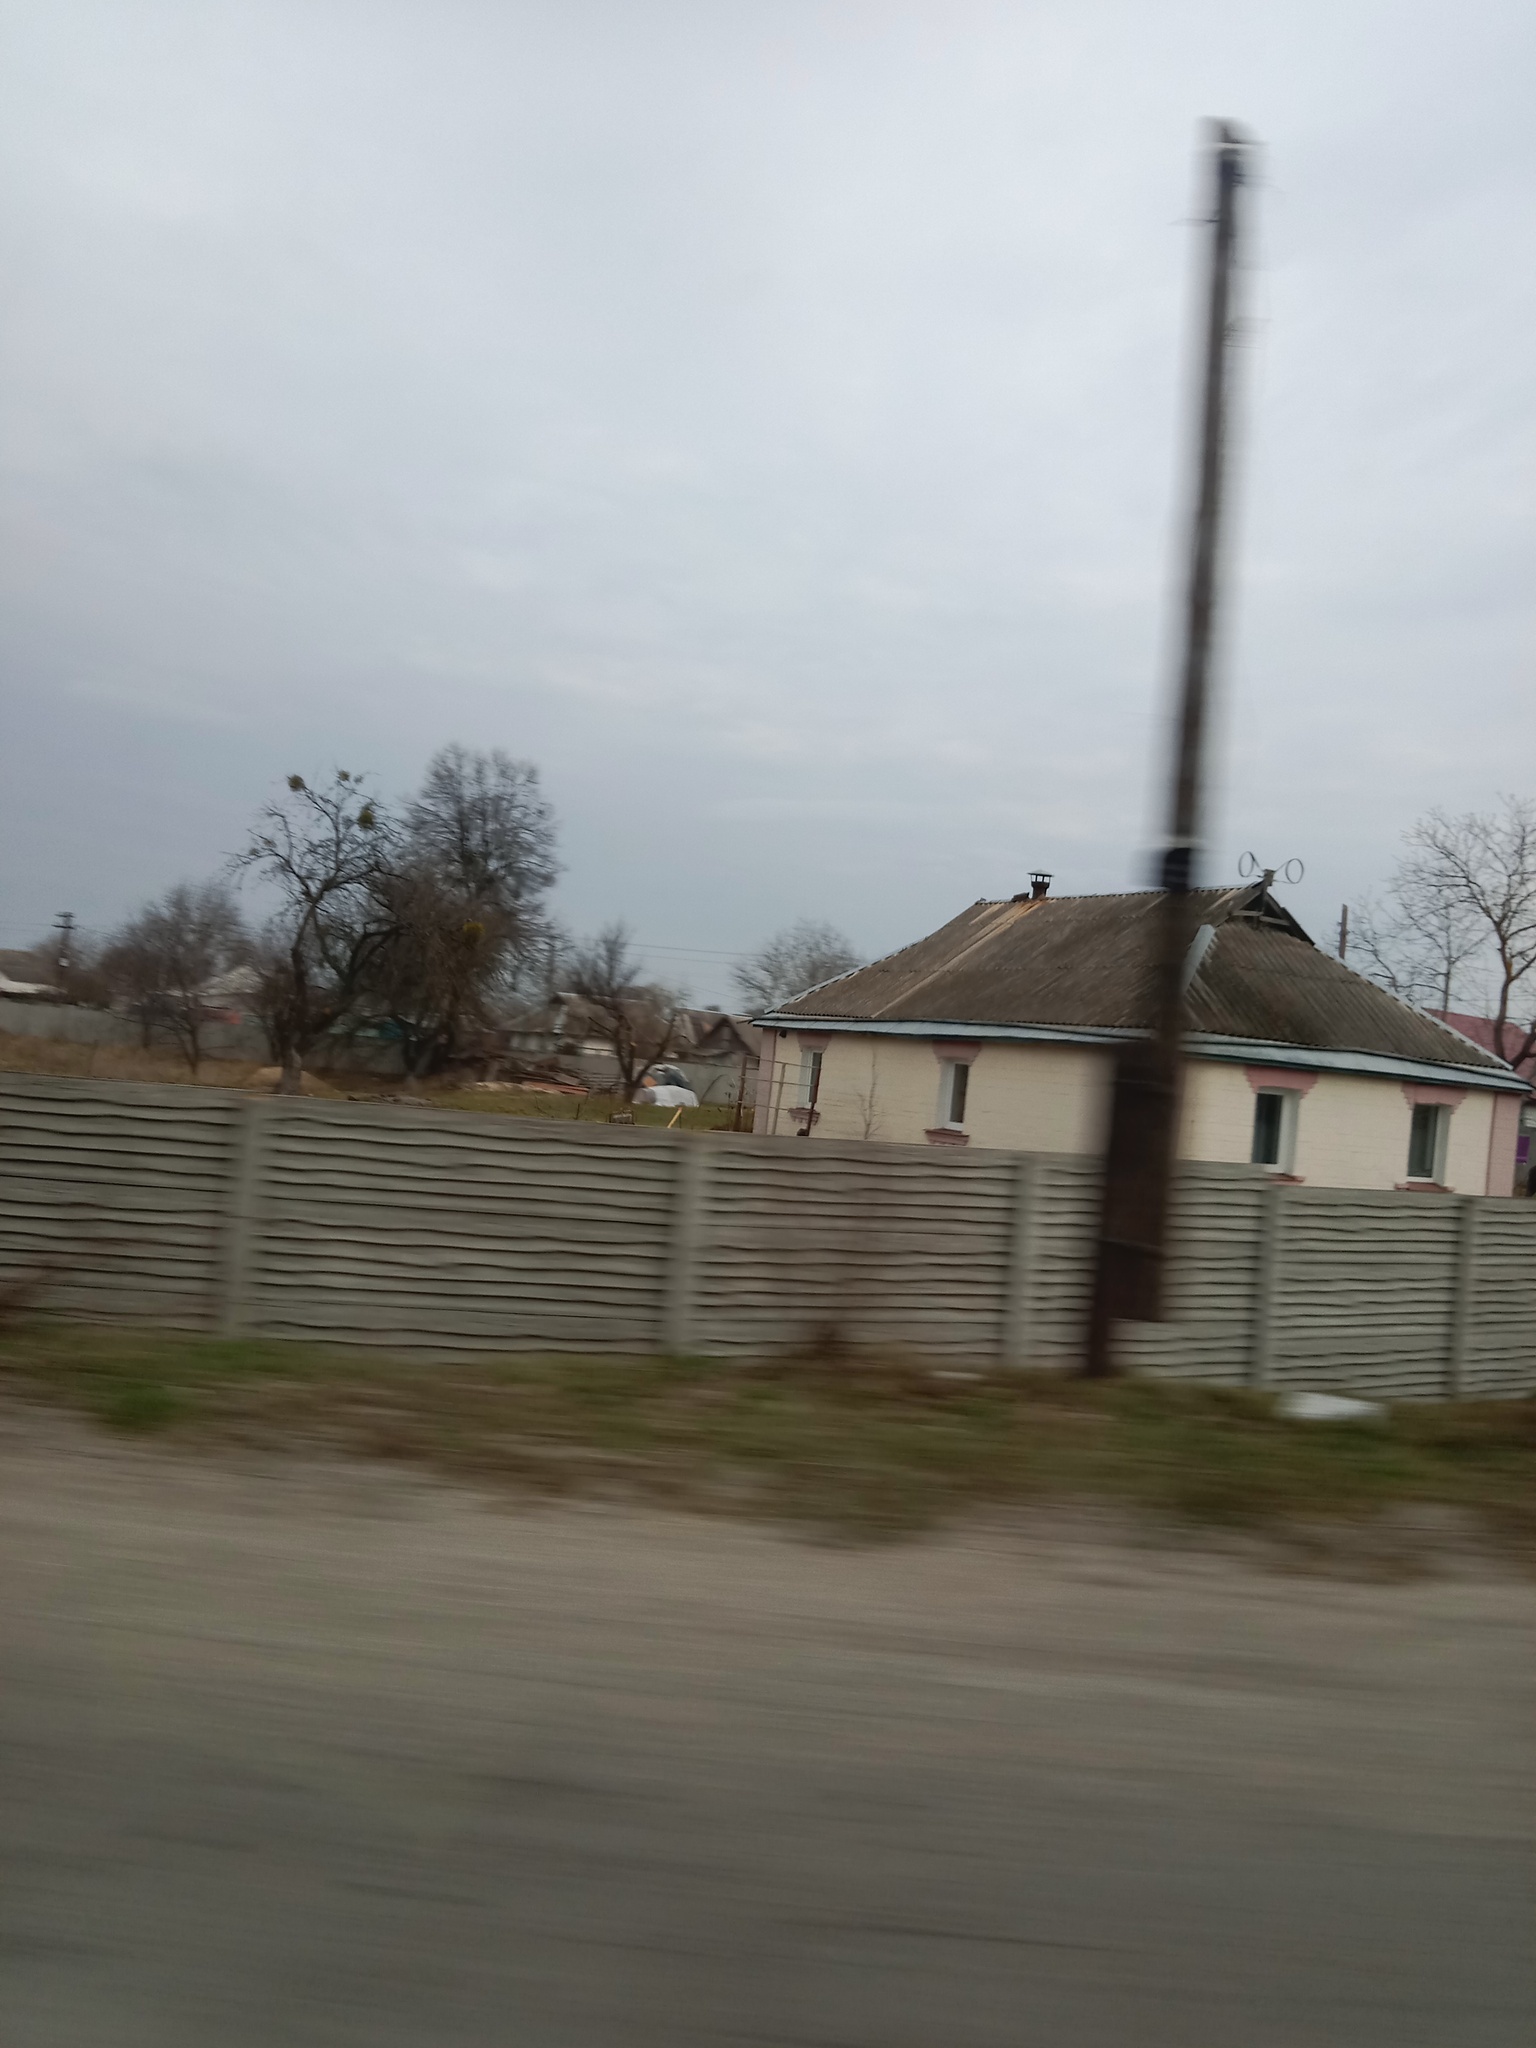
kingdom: Plantae
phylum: Tracheophyta
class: Magnoliopsida
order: Santalales
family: Viscaceae
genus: Viscum
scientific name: Viscum album
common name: Mistletoe
